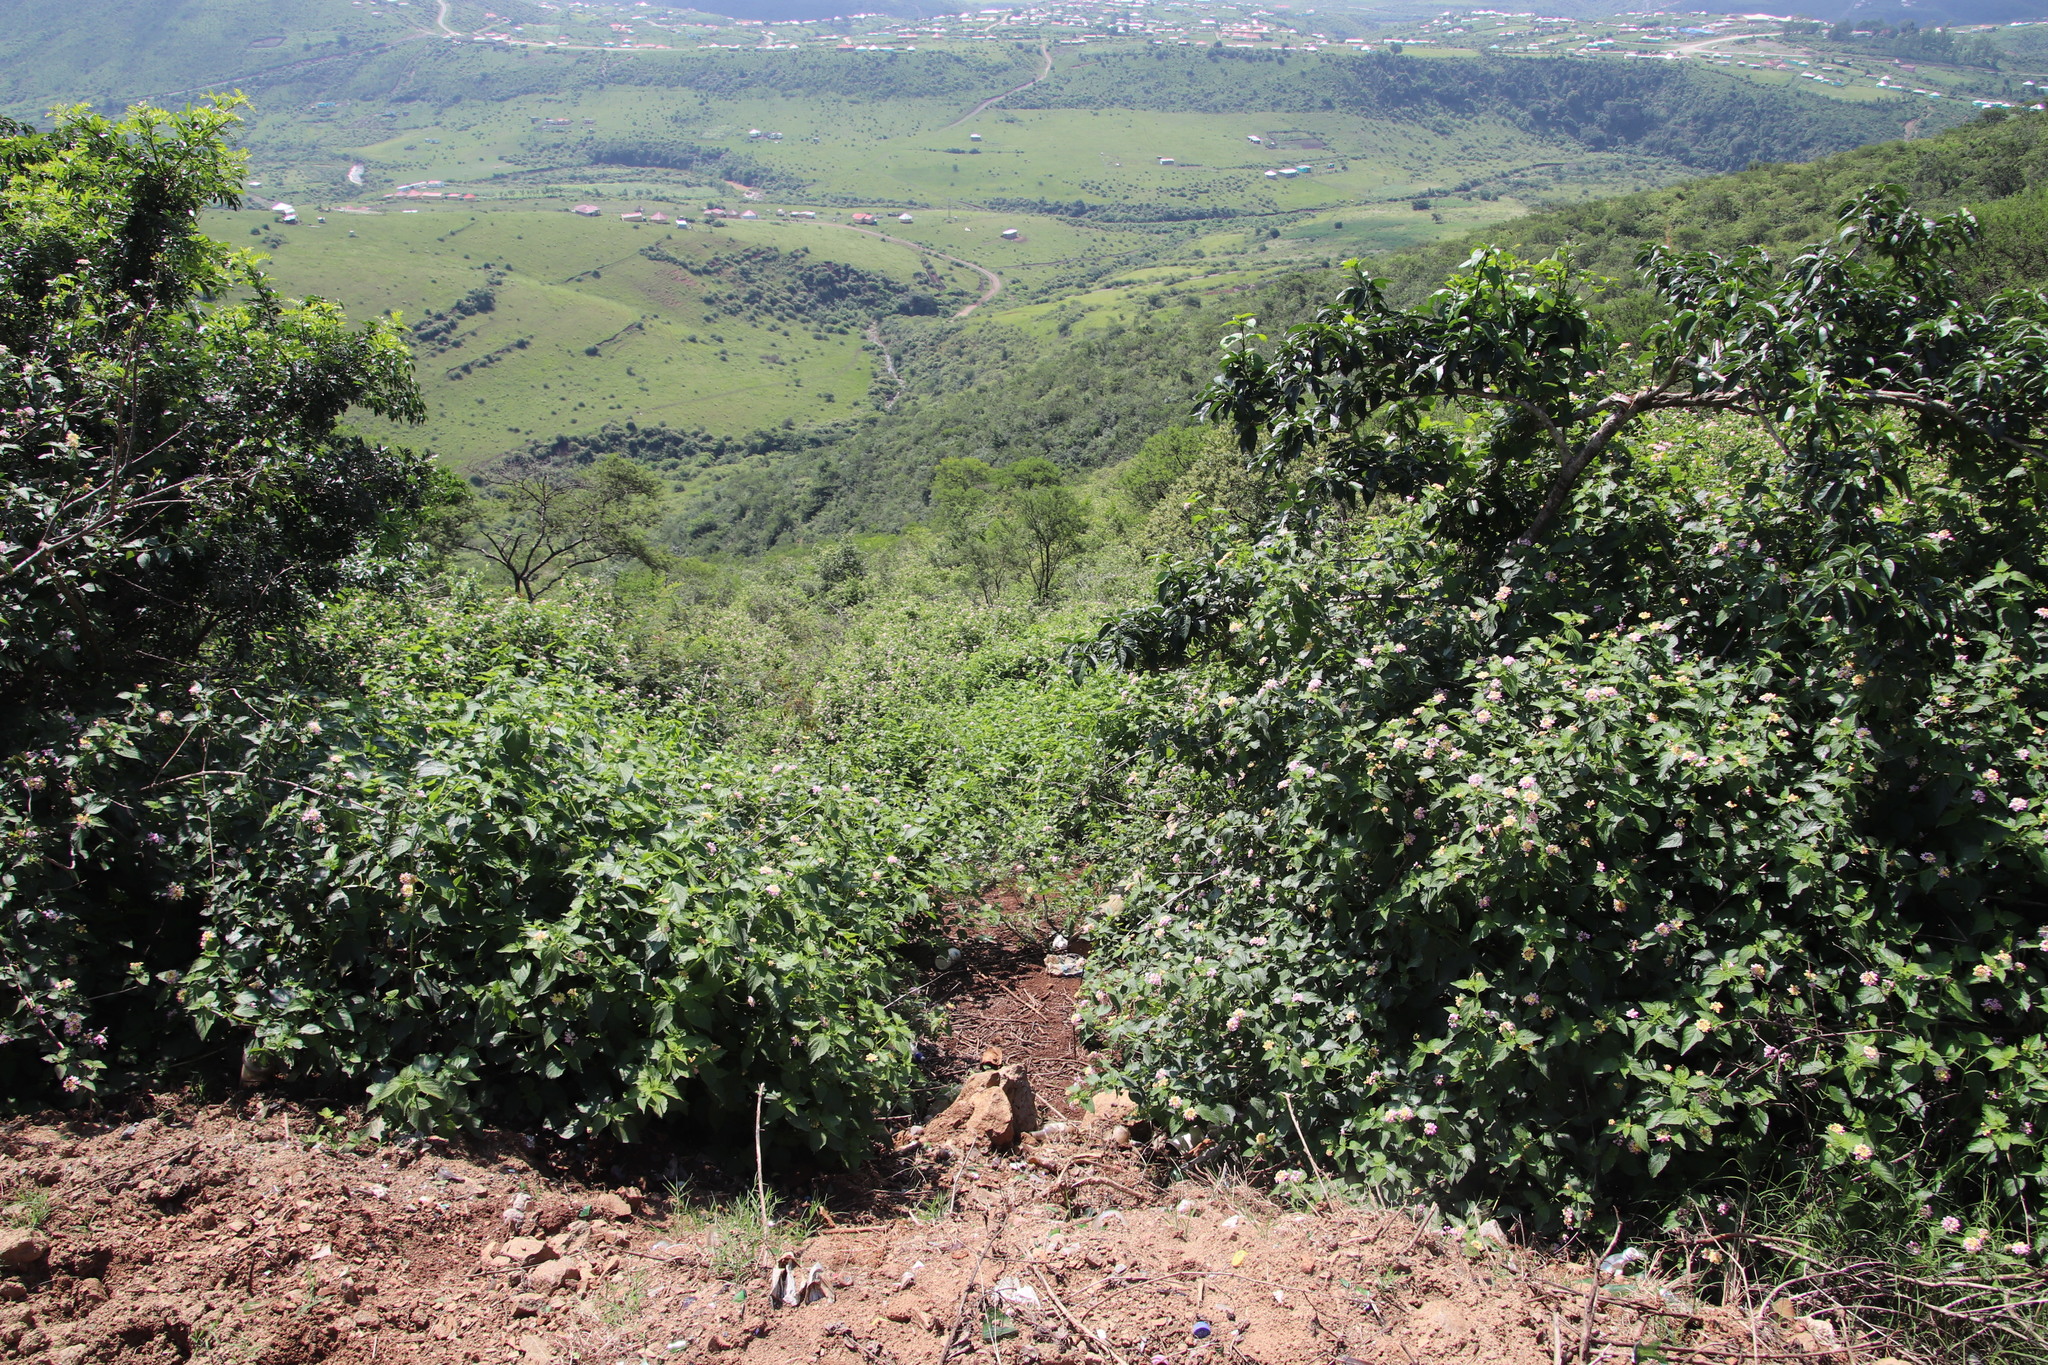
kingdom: Plantae
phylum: Tracheophyta
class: Magnoliopsida
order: Lamiales
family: Verbenaceae
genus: Lantana
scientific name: Lantana camara
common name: Lantana
